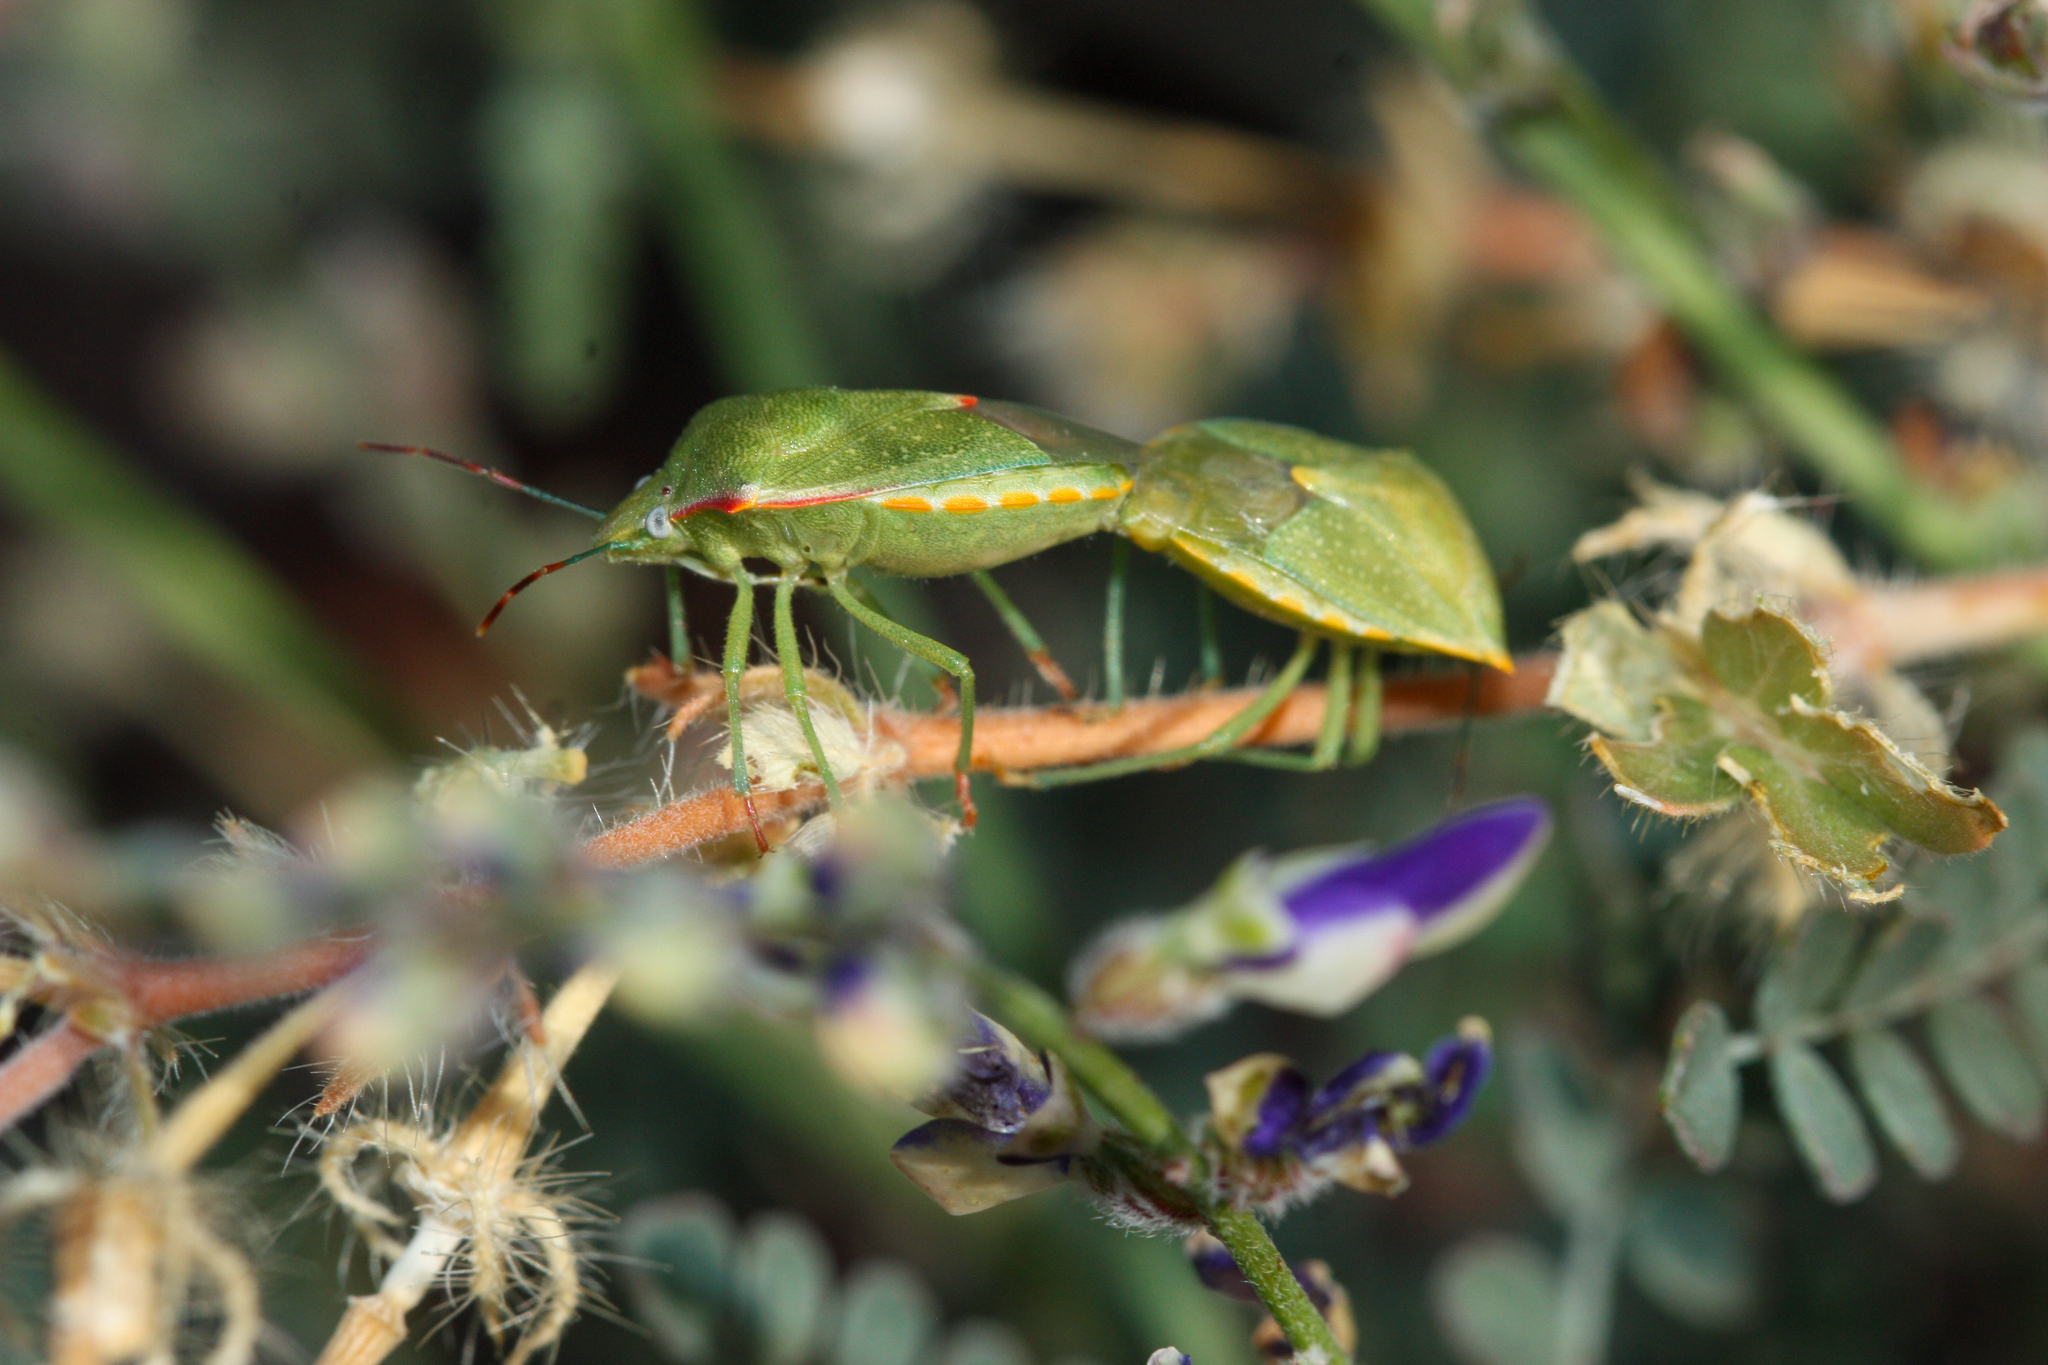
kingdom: Animalia
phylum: Arthropoda
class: Insecta
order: Hemiptera
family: Pentatomidae
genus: Thyanta
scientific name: Thyanta accerra
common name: Stink bug
